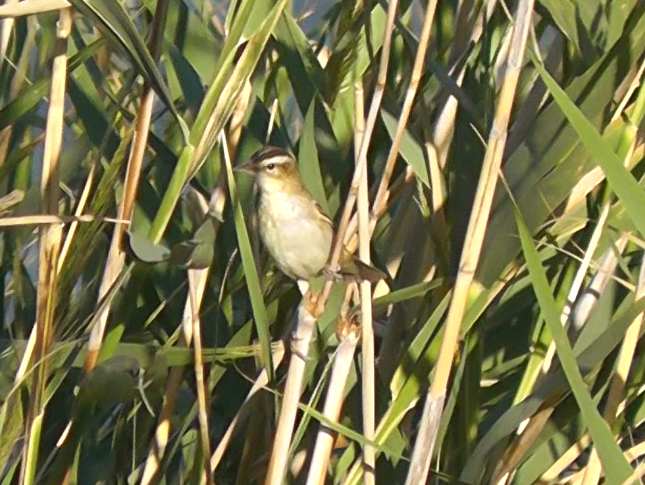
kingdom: Animalia
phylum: Chordata
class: Aves
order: Passeriformes
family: Acrocephalidae
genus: Acrocephalus
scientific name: Acrocephalus schoenobaenus
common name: Sedge warbler
